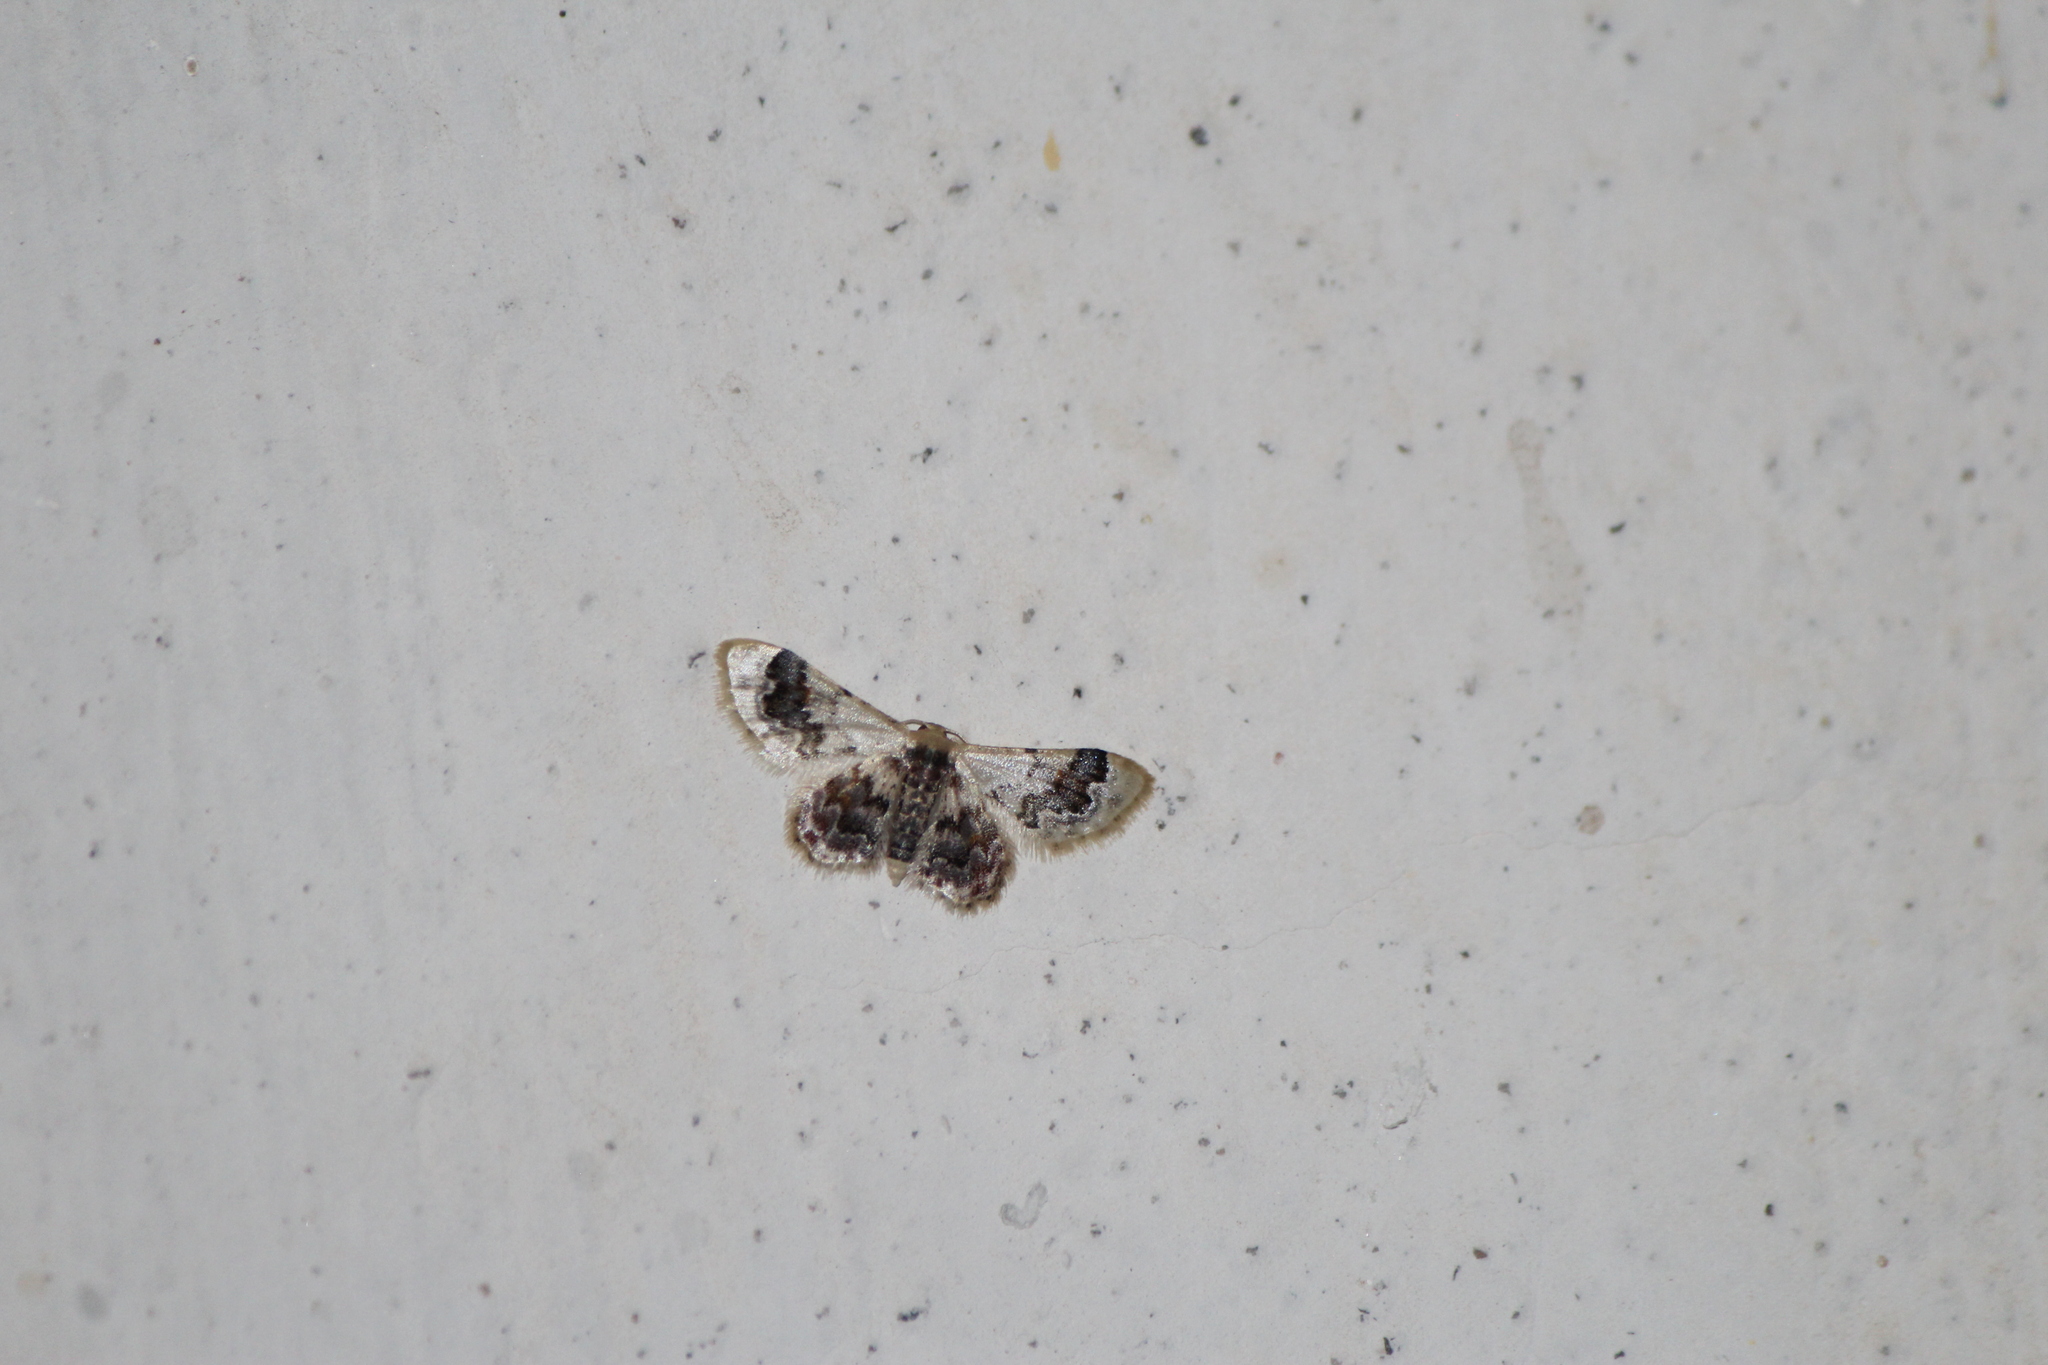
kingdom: Animalia
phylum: Arthropoda
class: Insecta
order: Lepidoptera
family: Geometridae
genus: Idaea
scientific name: Idaea asceta
